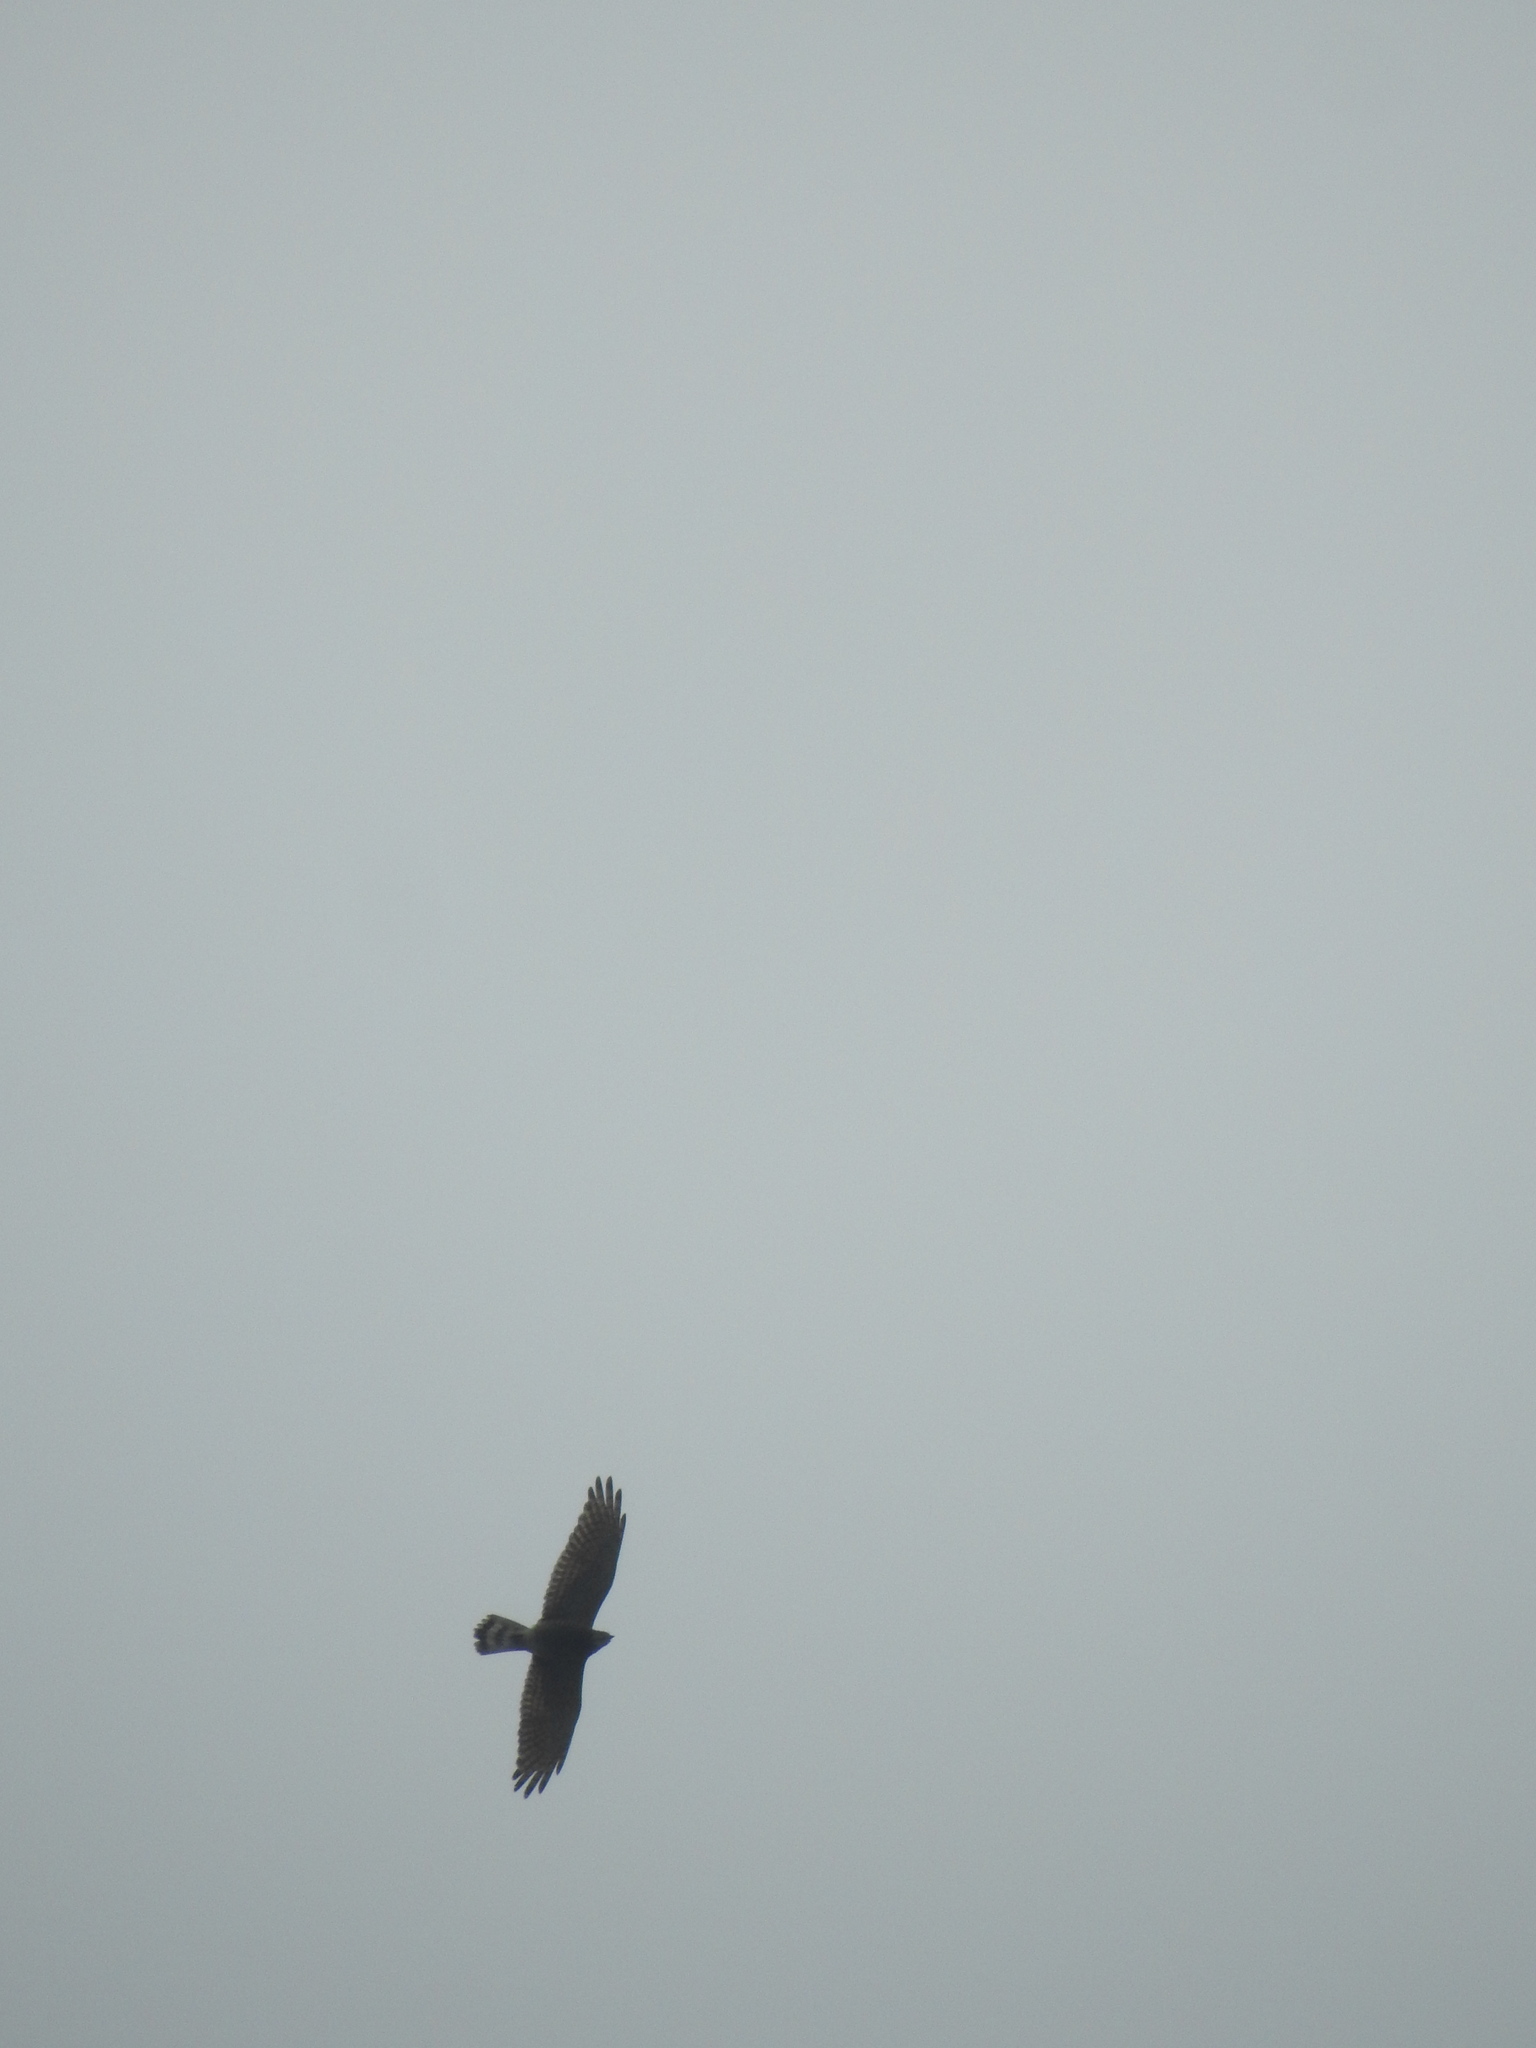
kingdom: Animalia
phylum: Chordata
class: Aves
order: Accipitriformes
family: Accipitridae
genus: Butastur
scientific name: Butastur indicus
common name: Grey-faced buzzard
